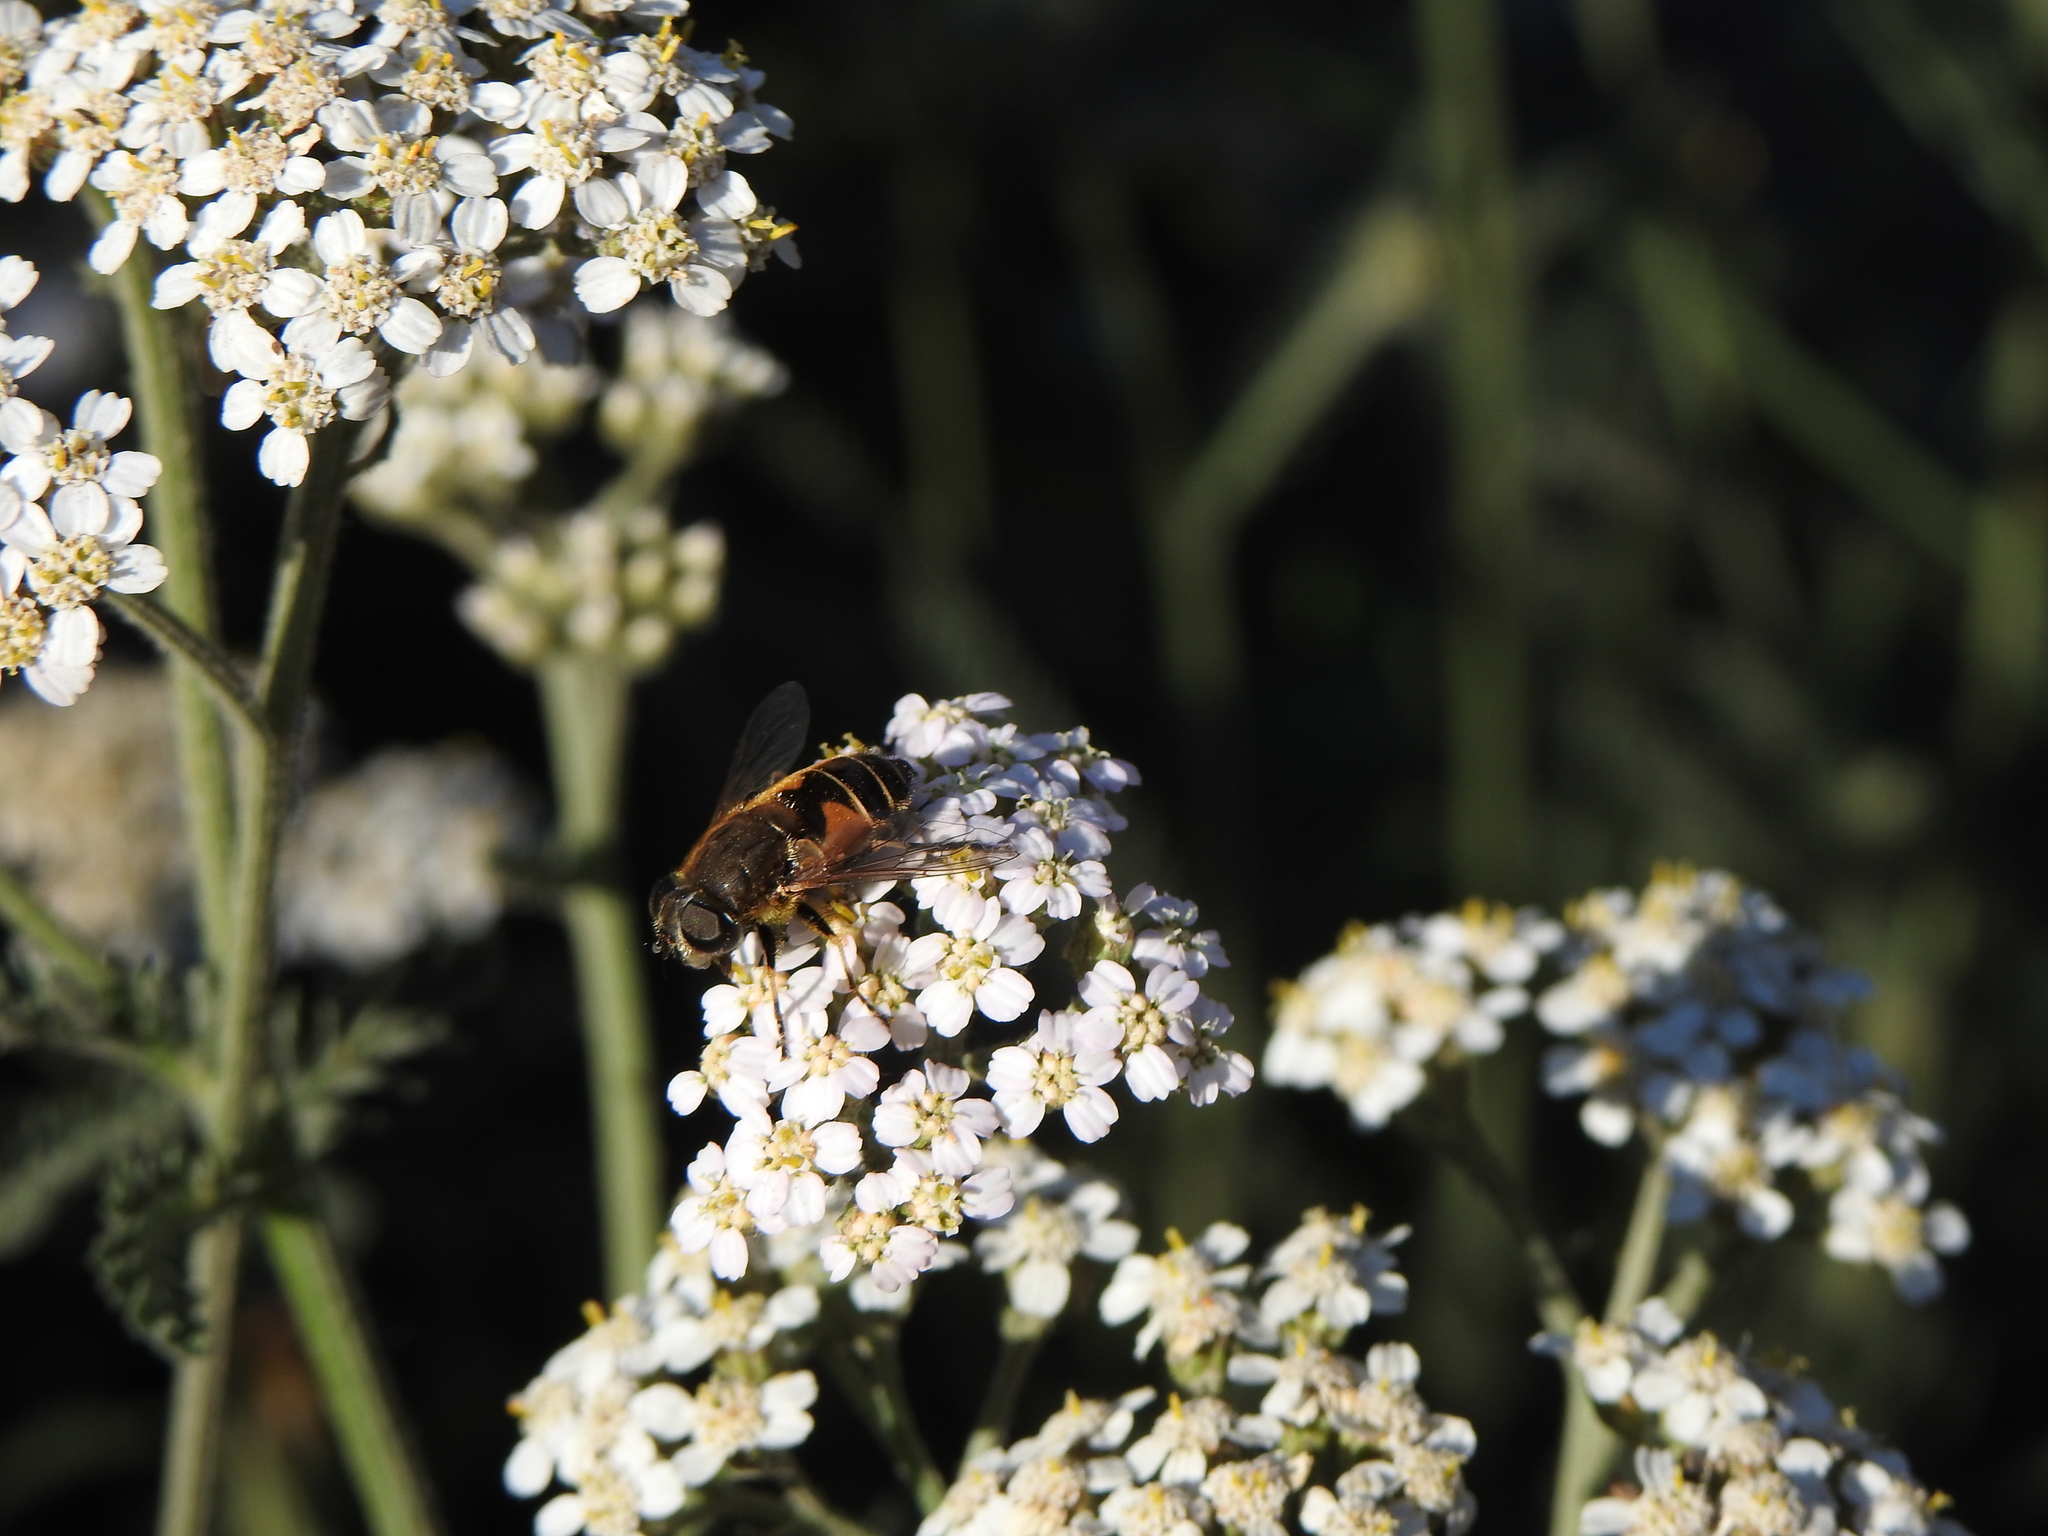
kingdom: Animalia
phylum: Arthropoda
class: Insecta
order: Diptera
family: Syrphidae
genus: Eristalis
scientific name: Eristalis croceimaculata
